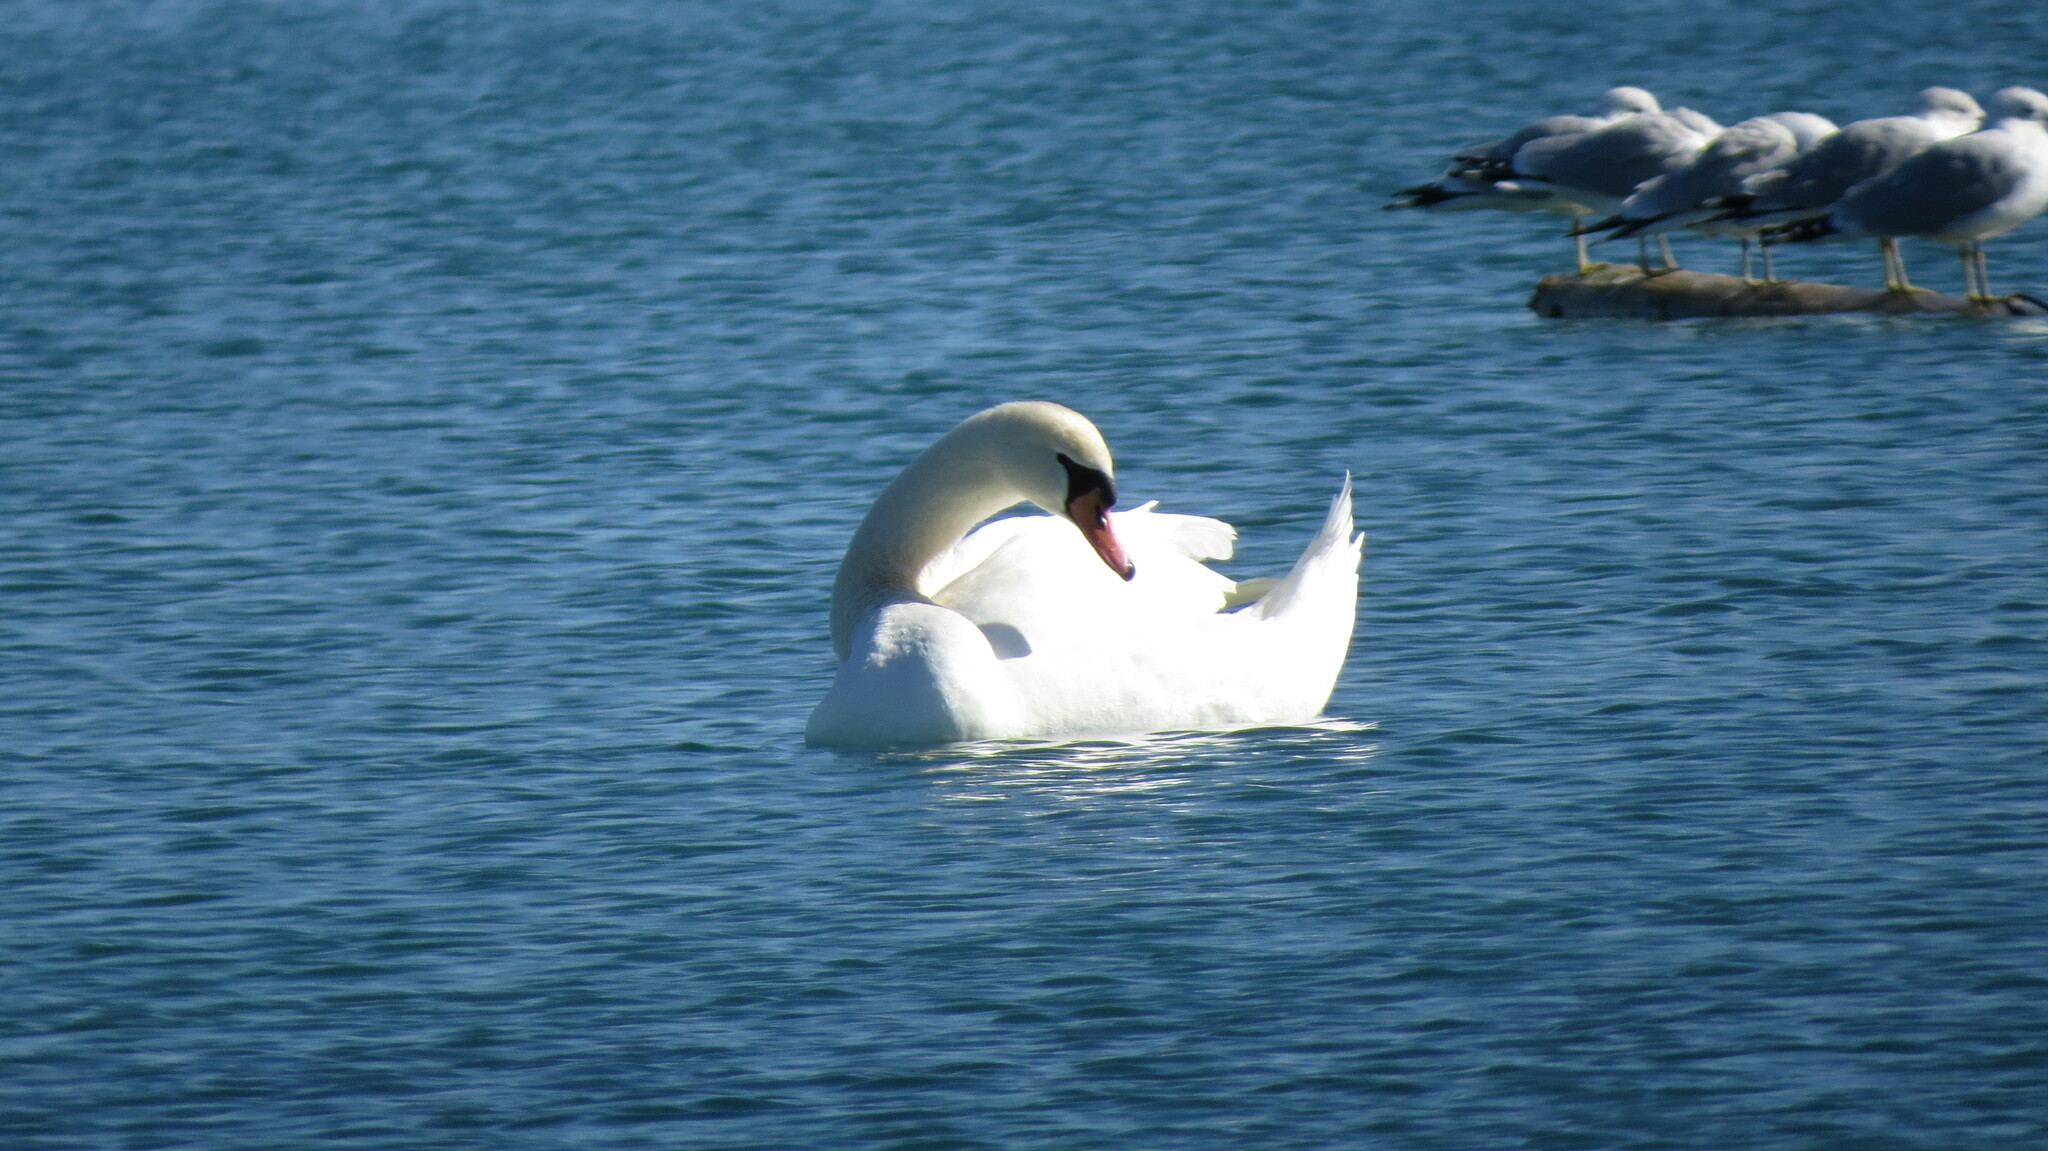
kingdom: Animalia
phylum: Chordata
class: Aves
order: Anseriformes
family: Anatidae
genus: Cygnus
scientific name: Cygnus olor
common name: Mute swan
